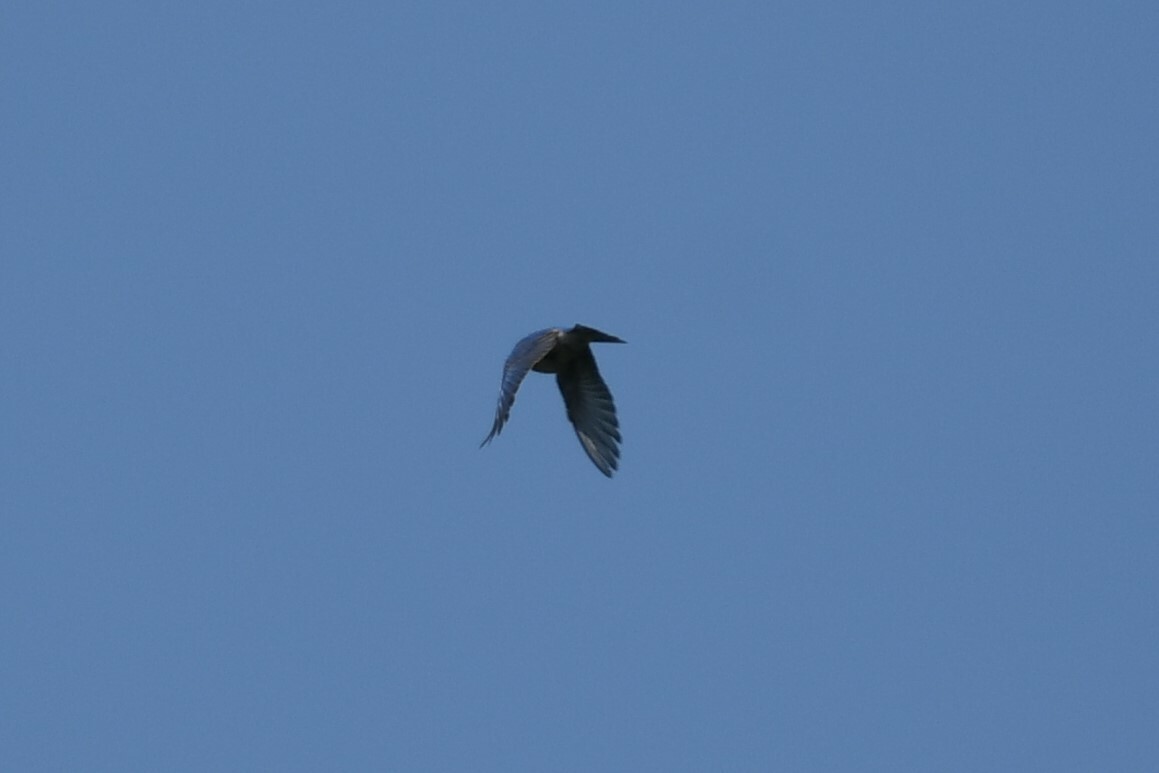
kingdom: Animalia
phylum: Chordata
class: Aves
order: Passeriformes
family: Turdidae
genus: Sialia
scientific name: Sialia sialis
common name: Eastern bluebird
